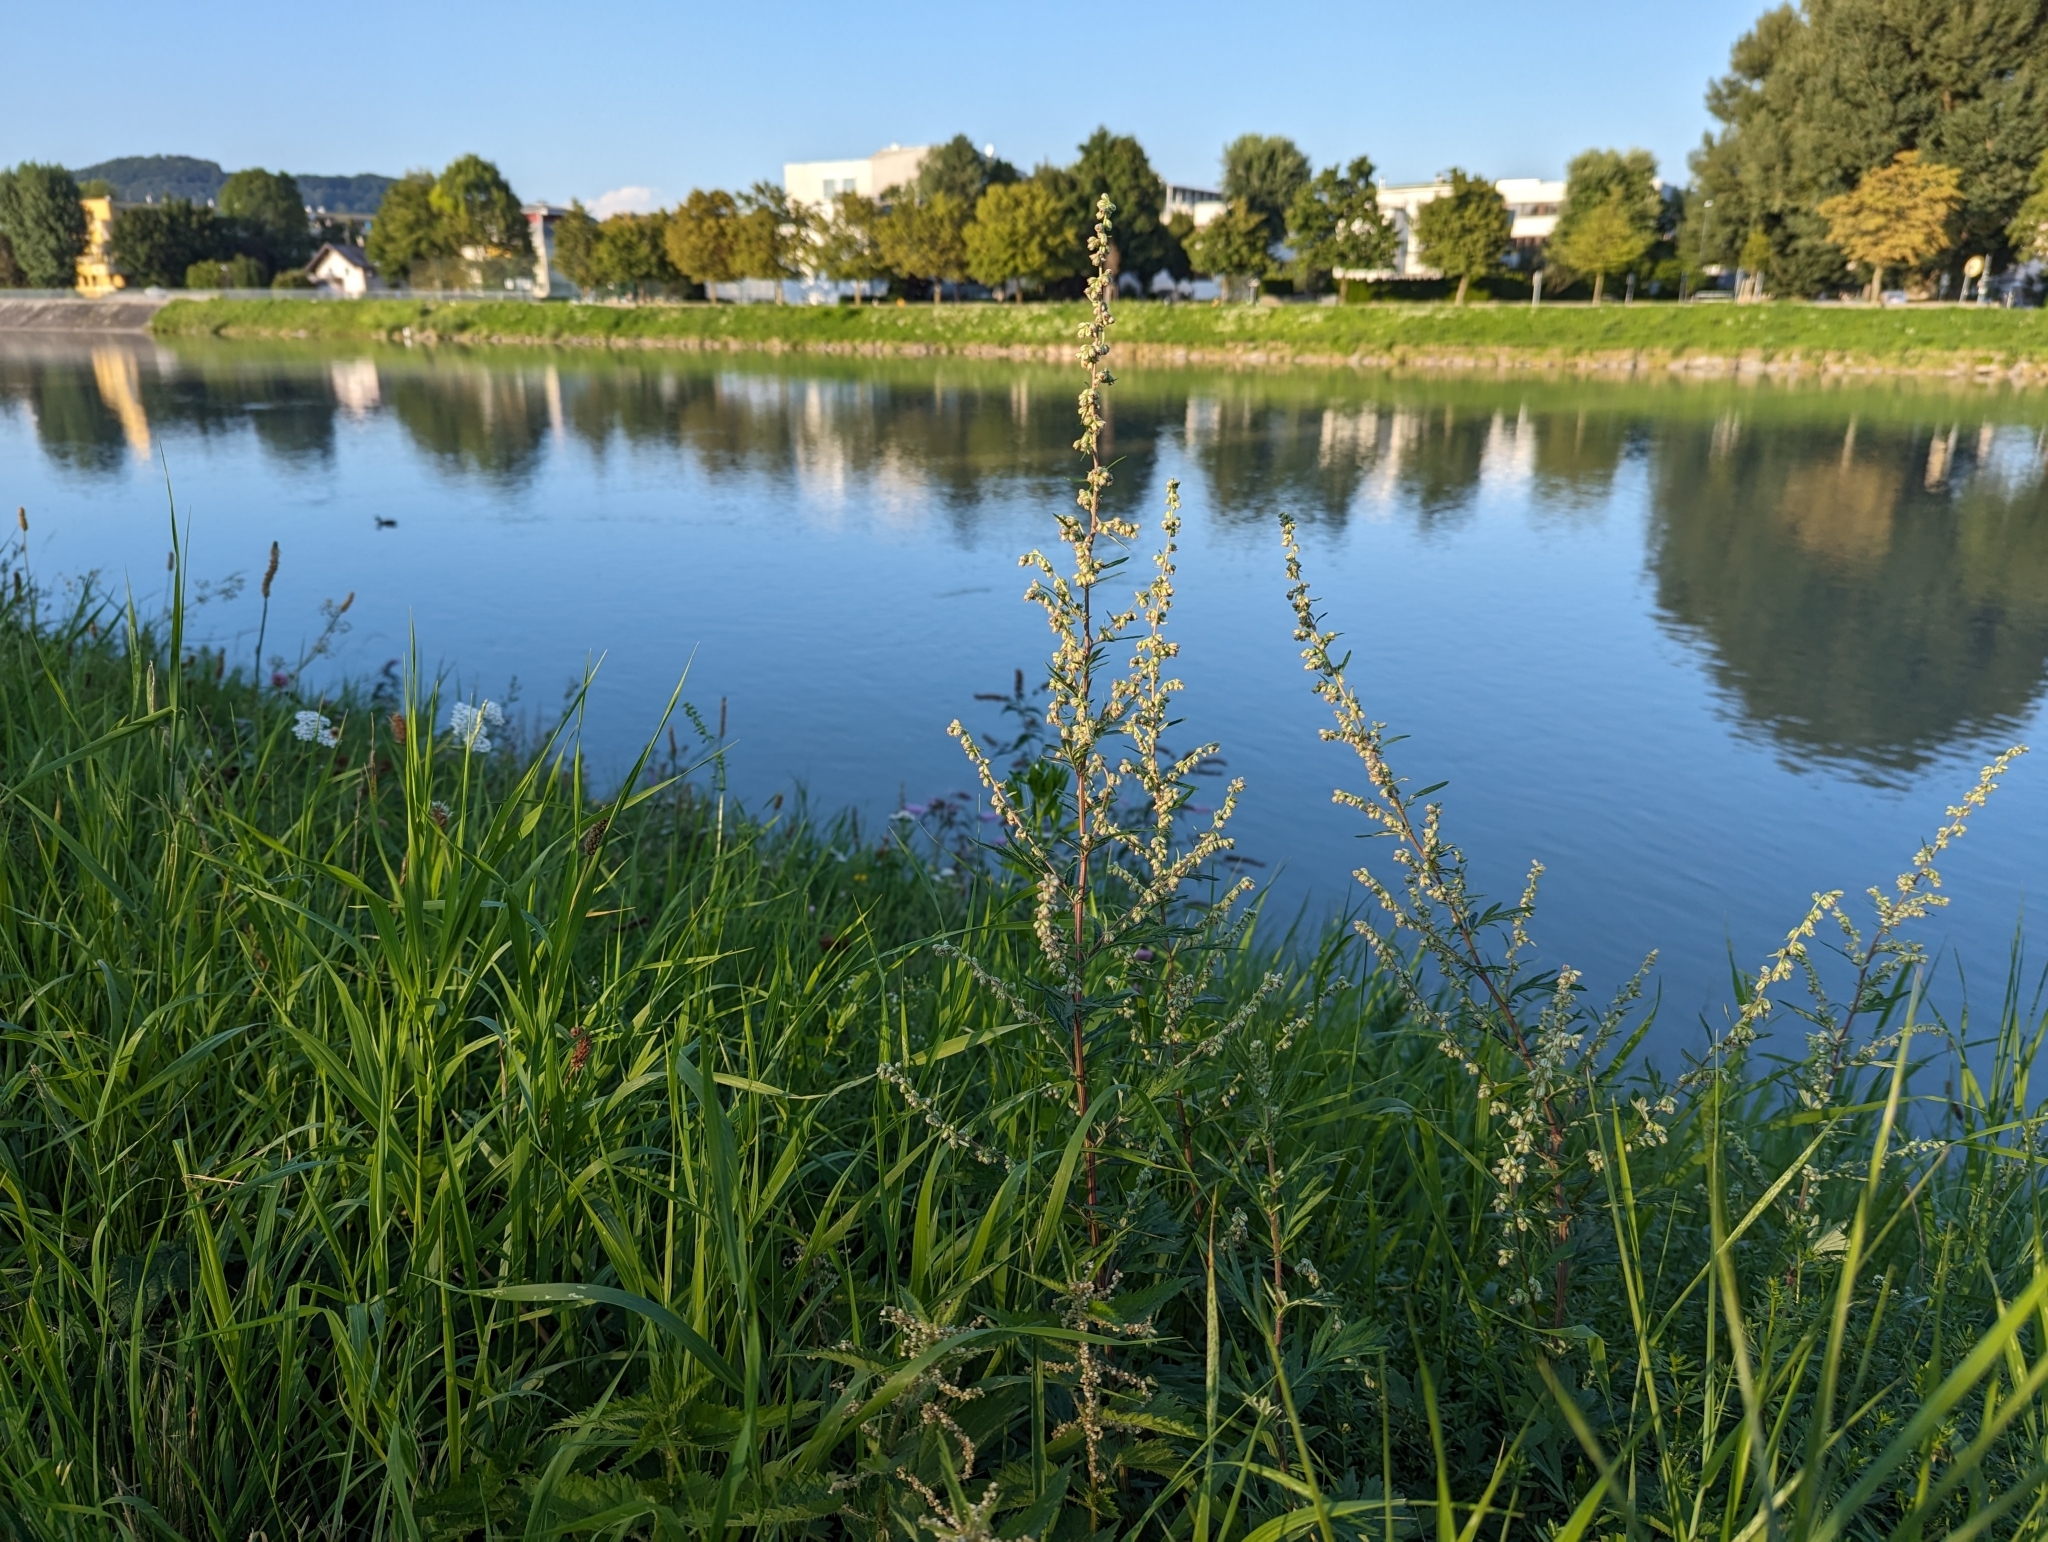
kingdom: Plantae
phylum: Tracheophyta
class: Magnoliopsida
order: Asterales
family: Asteraceae
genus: Artemisia
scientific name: Artemisia vulgaris
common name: Mugwort
